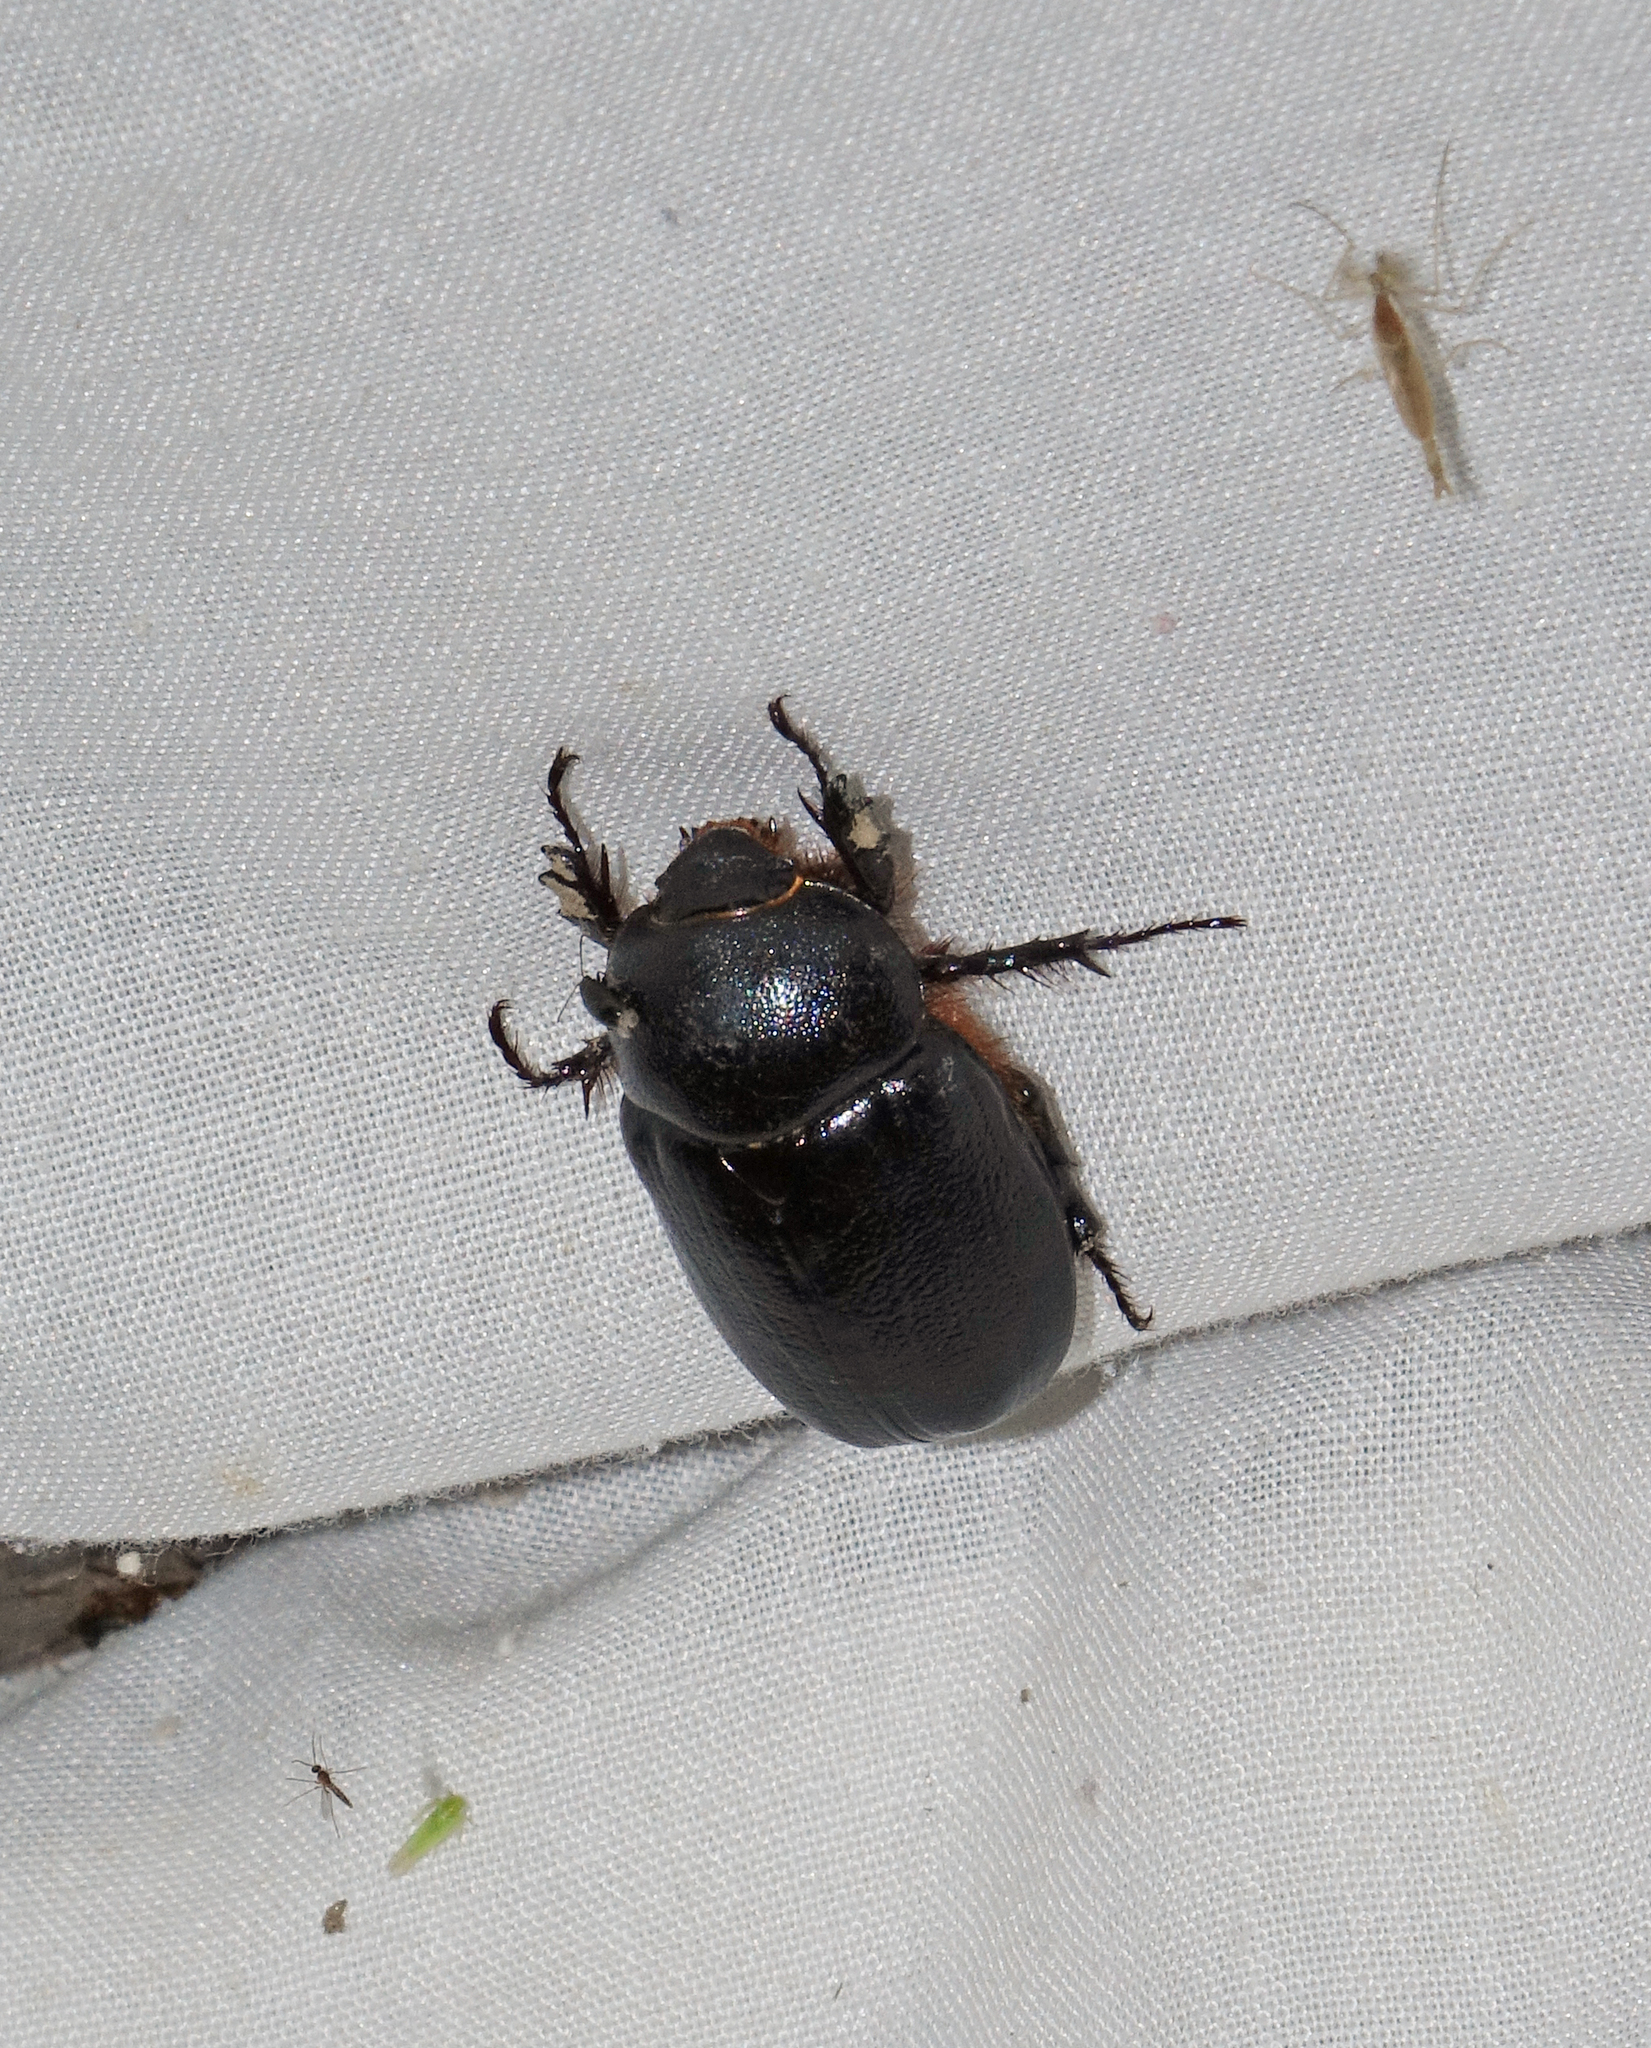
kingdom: Animalia
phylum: Arthropoda
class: Insecta
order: Coleoptera
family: Scarabaeidae
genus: Pentodon
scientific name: Pentodon idiota
